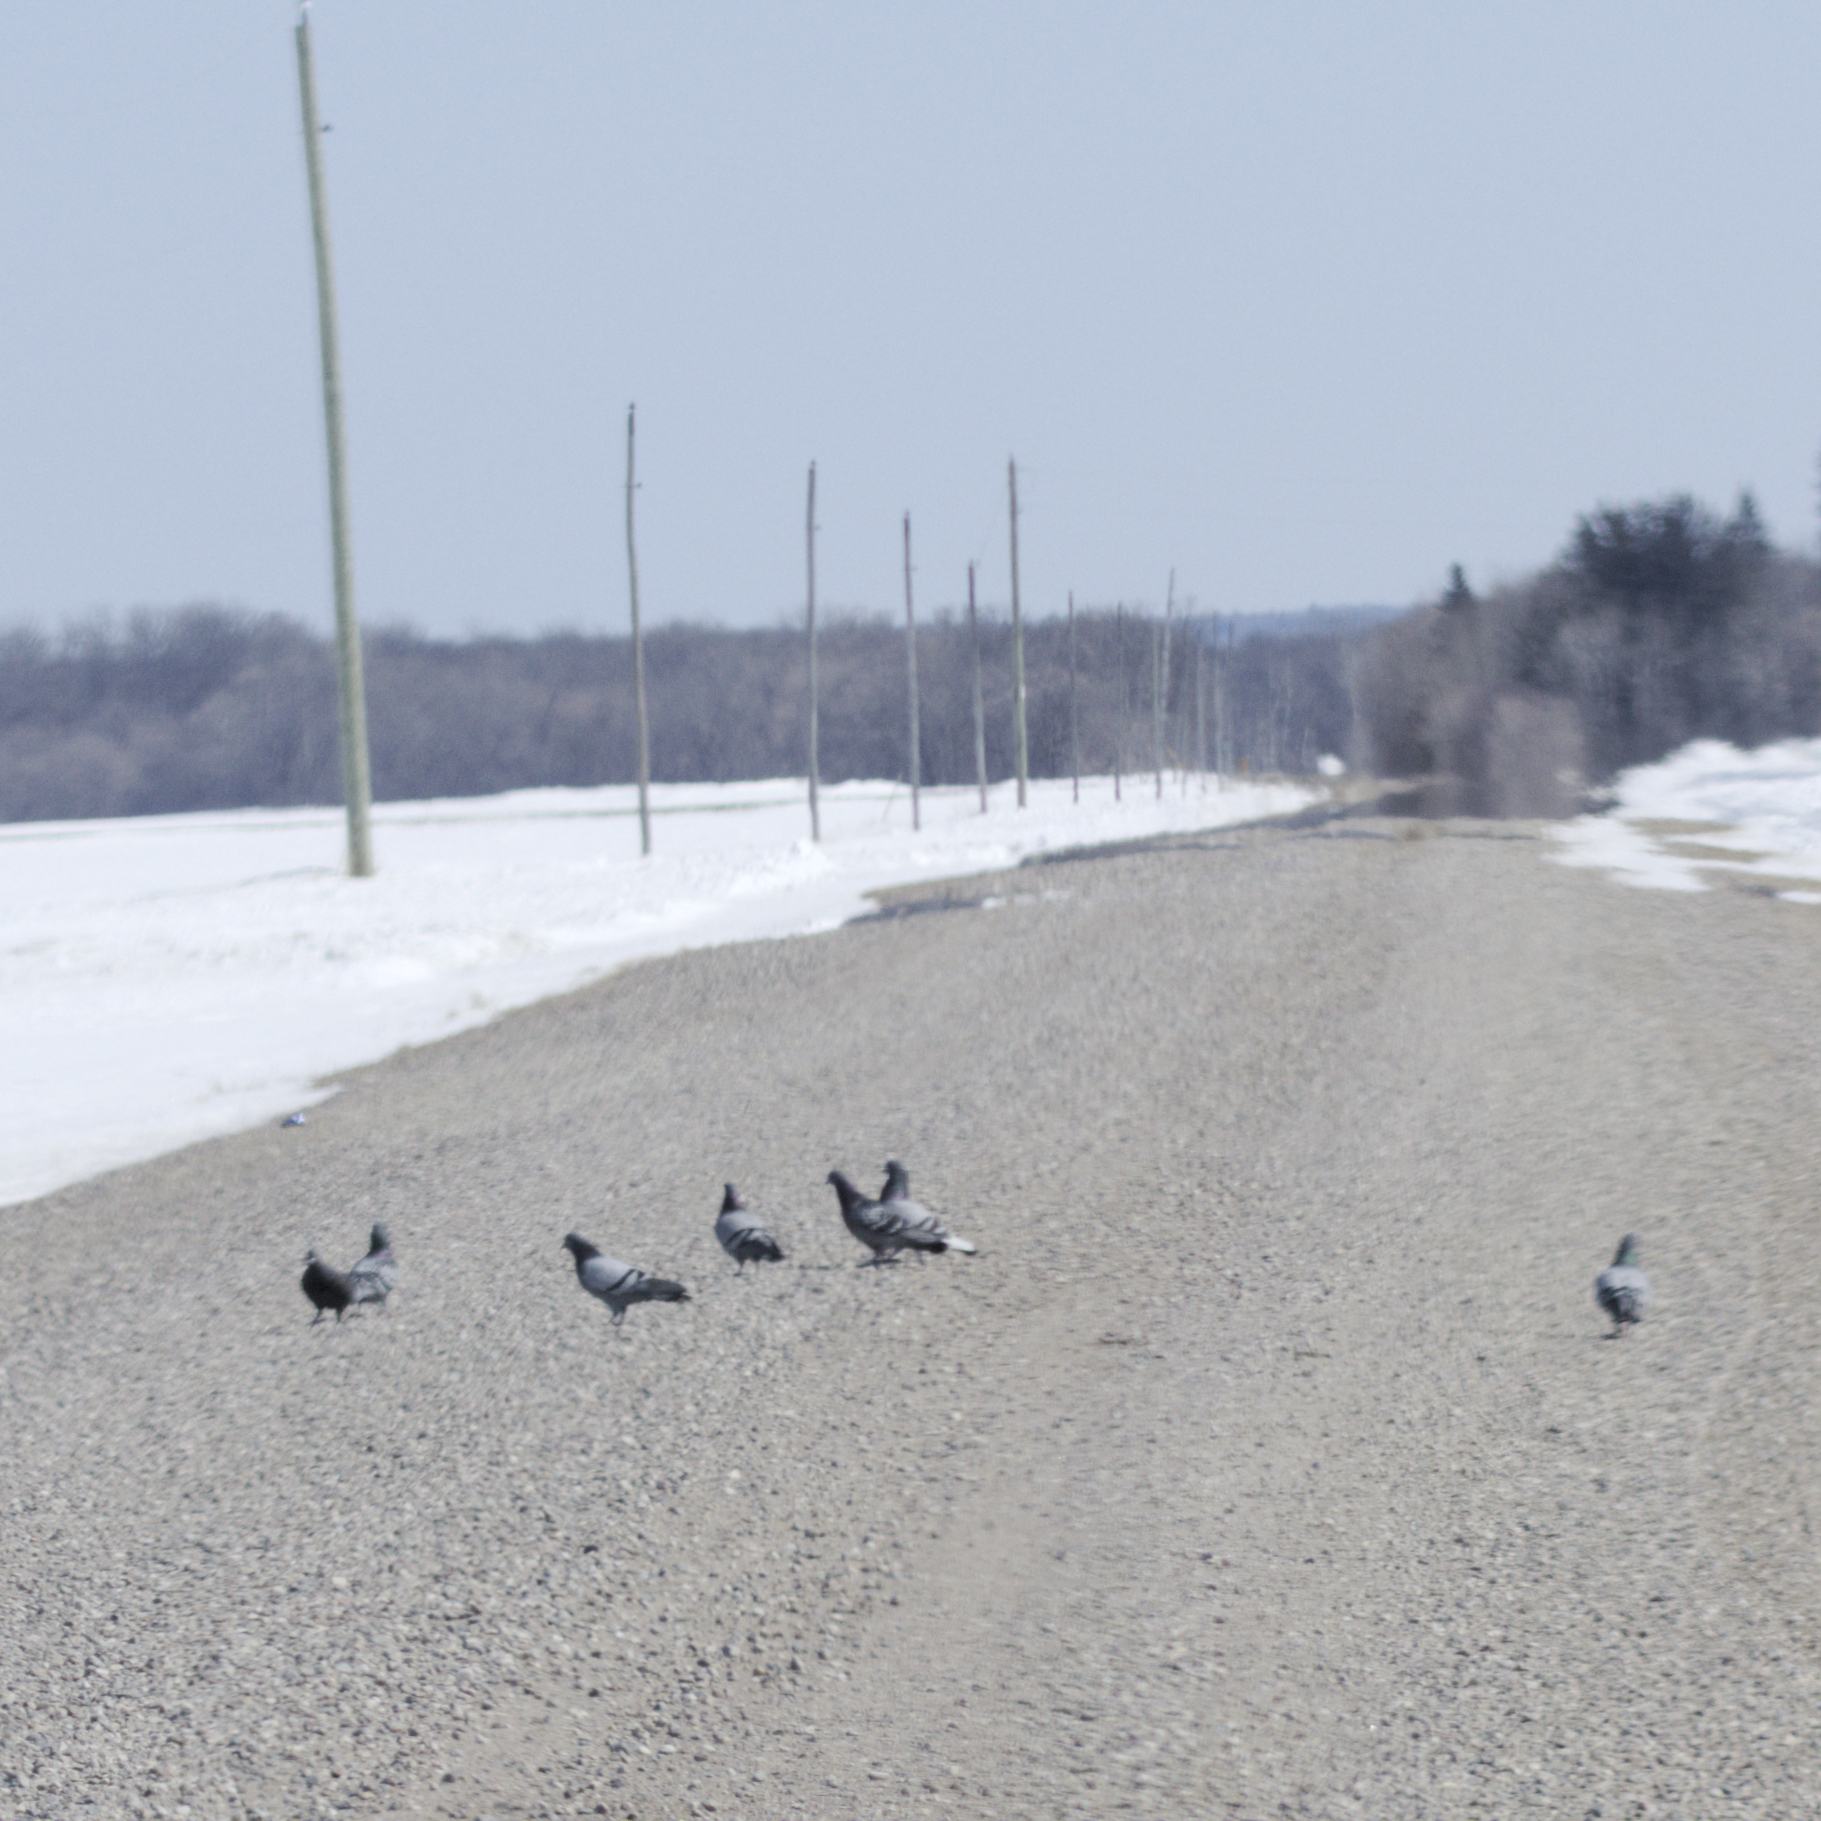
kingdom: Animalia
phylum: Chordata
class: Aves
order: Columbiformes
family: Columbidae
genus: Columba
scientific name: Columba livia
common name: Rock pigeon
